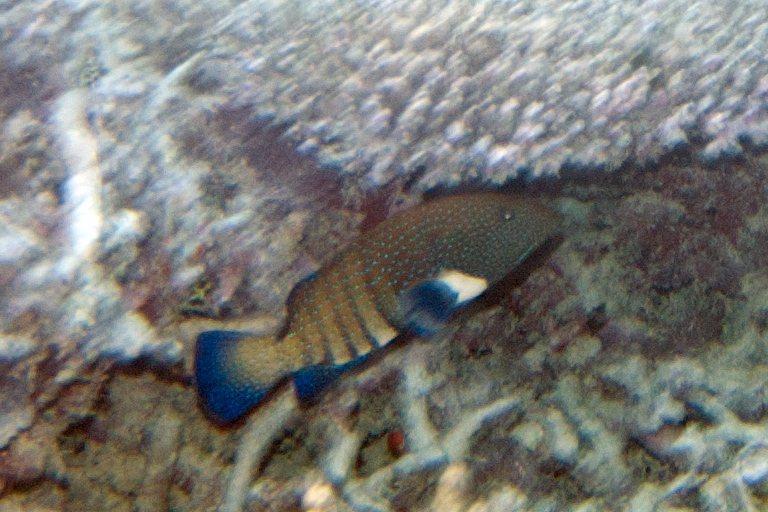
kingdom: Animalia
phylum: Chordata
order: Perciformes
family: Serranidae
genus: Cephalopholis
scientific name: Cephalopholis argus
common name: Peacock grouper
